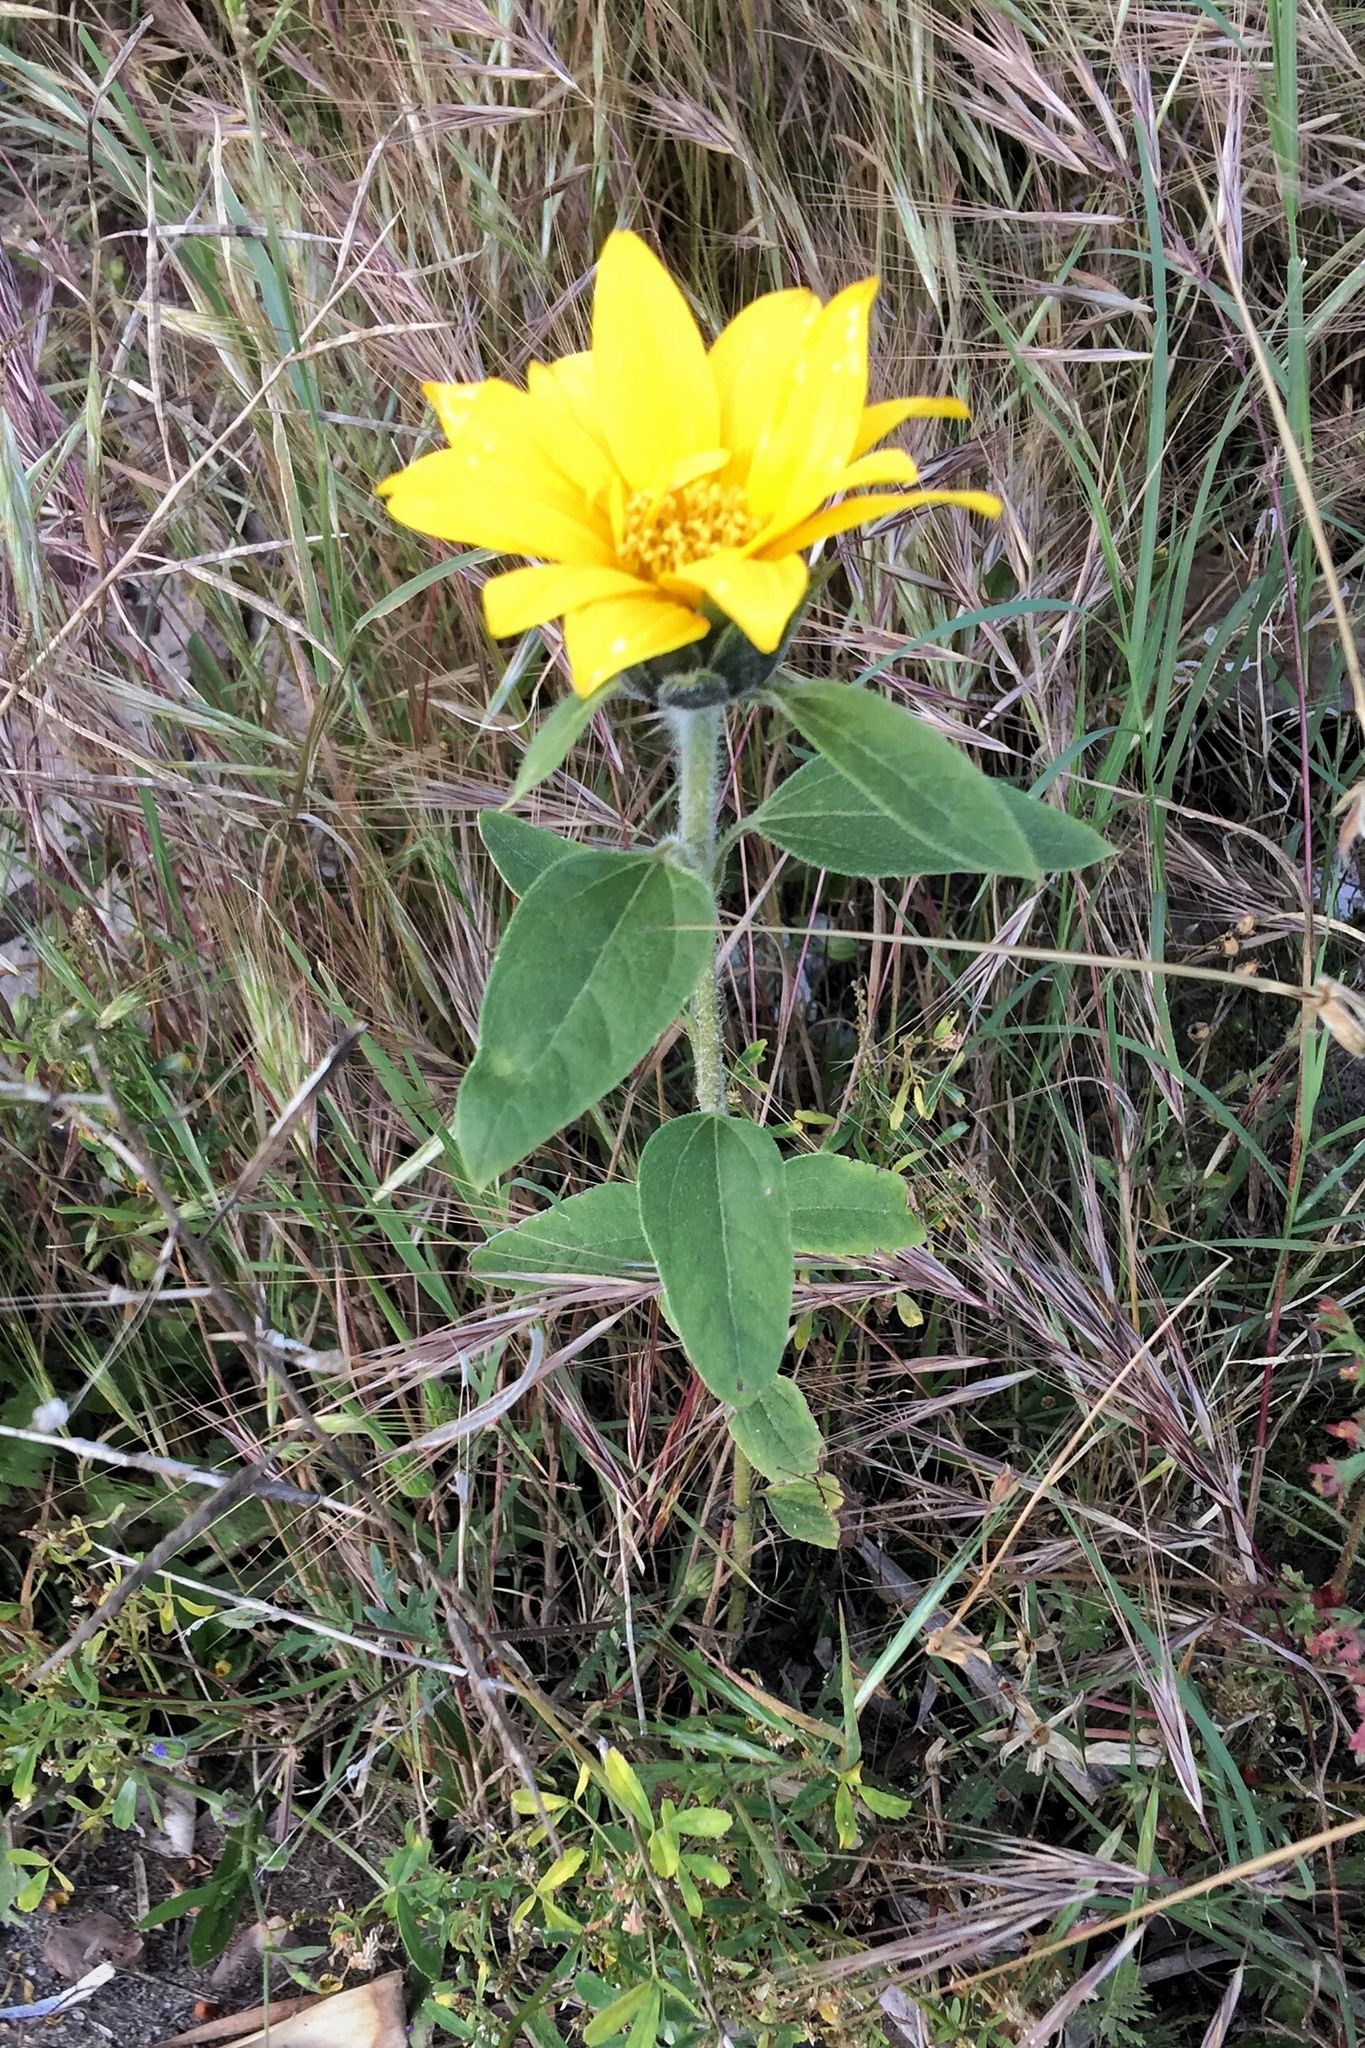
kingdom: Plantae
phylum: Tracheophyta
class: Magnoliopsida
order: Asterales
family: Asteraceae
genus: Helianthus
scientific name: Helianthus annuus
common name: Sunflower
